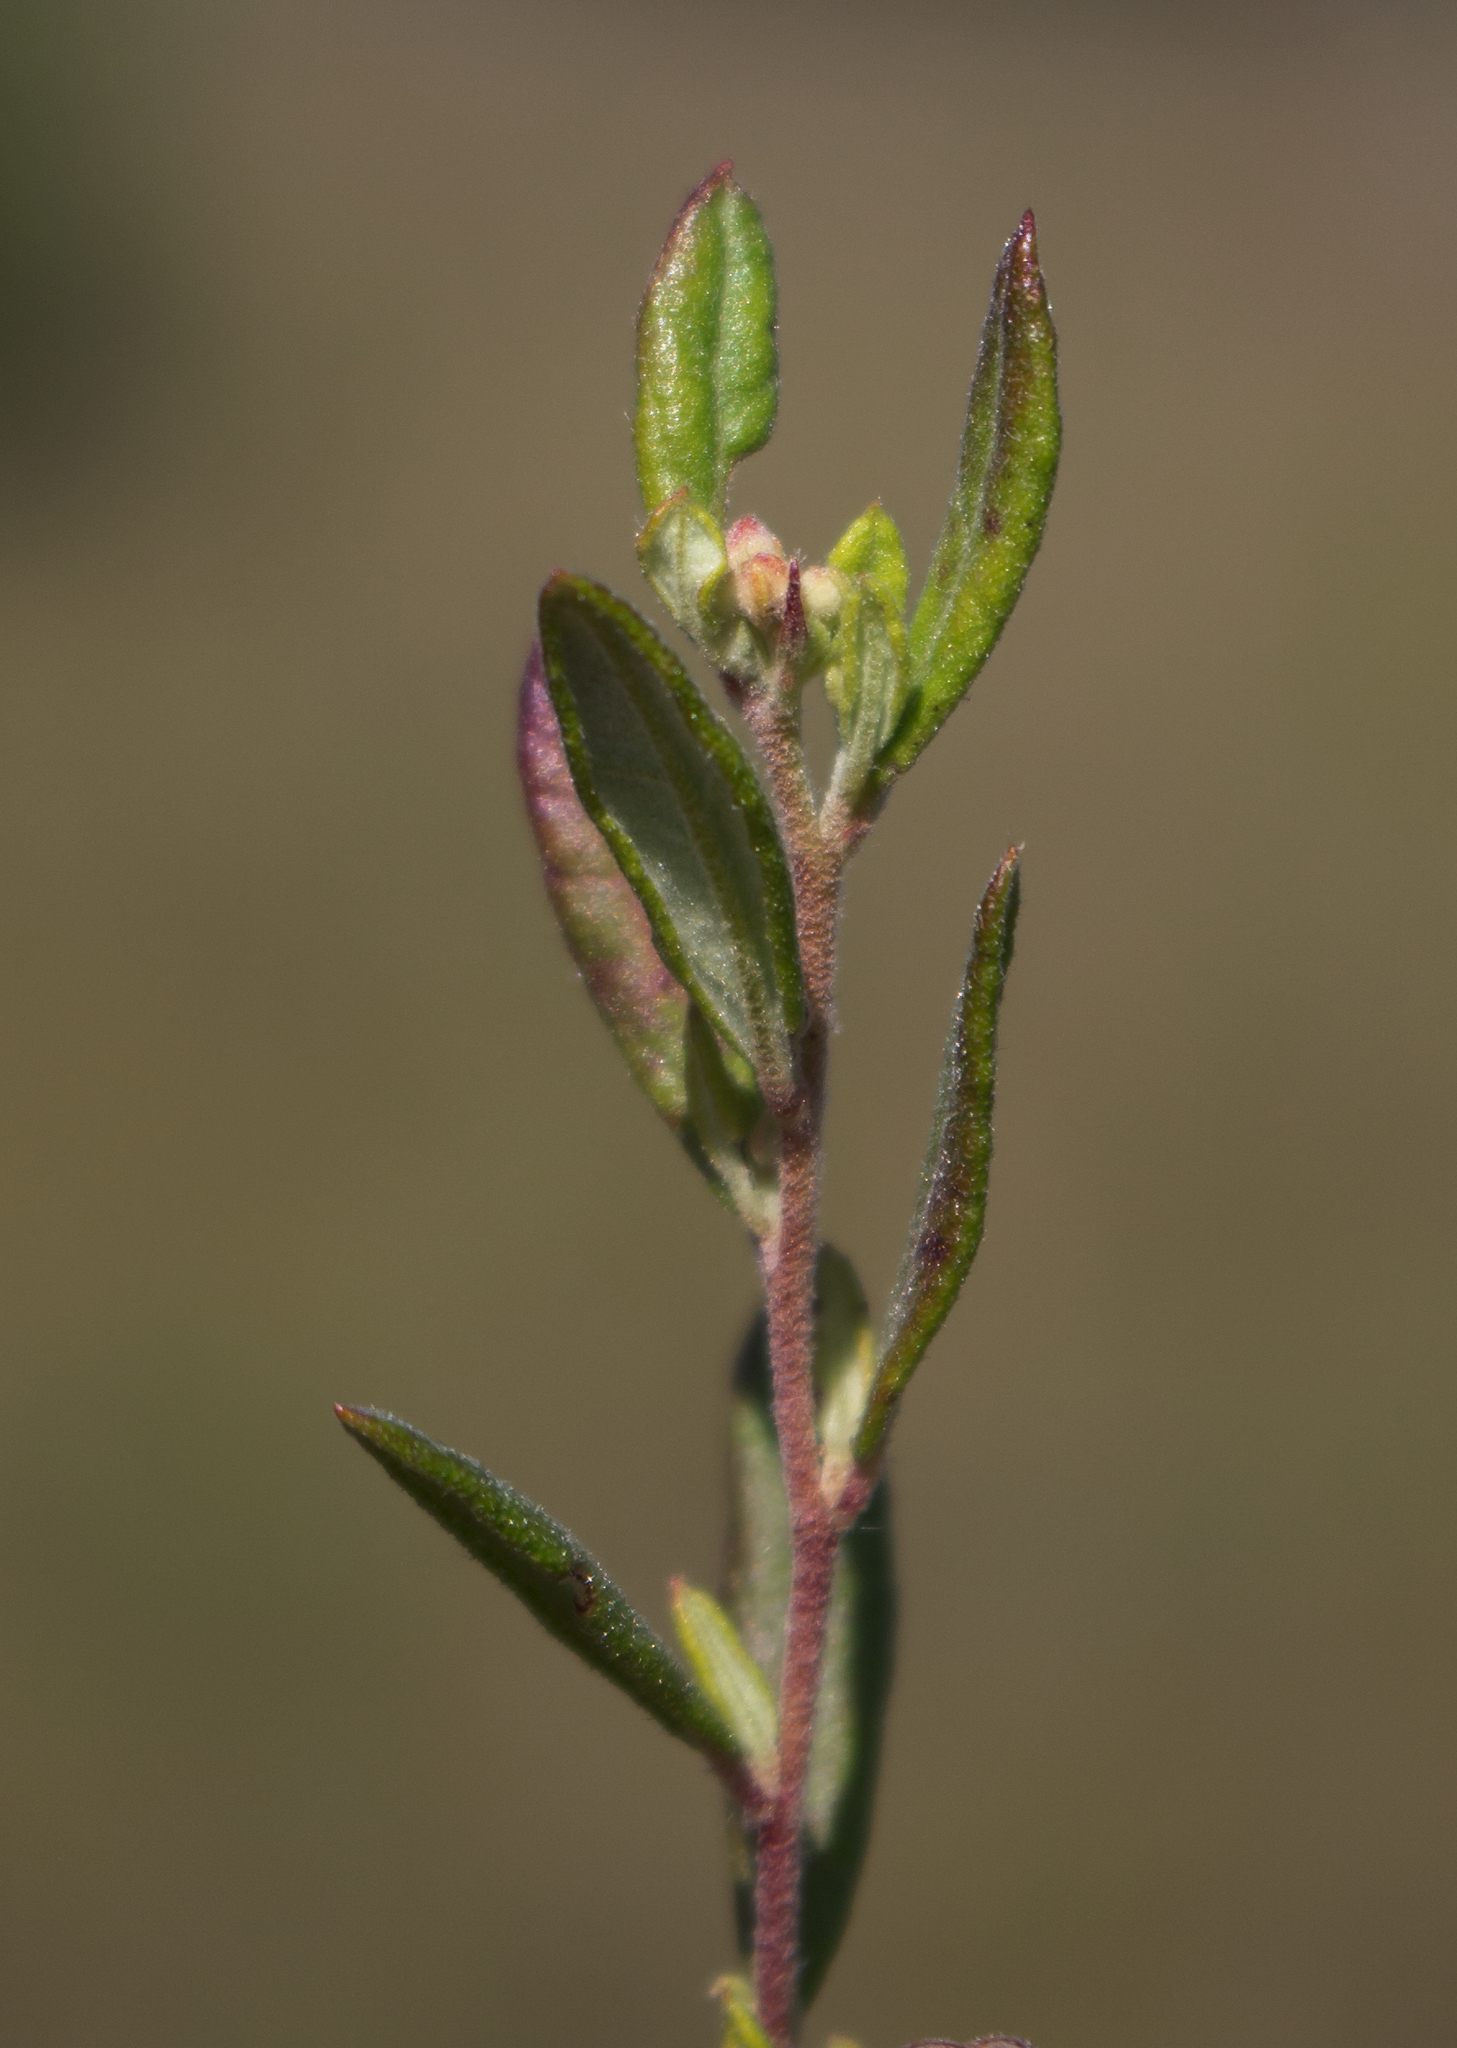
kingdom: Plantae
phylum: Tracheophyta
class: Magnoliopsida
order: Malvales
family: Cistaceae
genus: Crocanthemum
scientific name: Crocanthemum bicknellii
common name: Hoary frostweed
